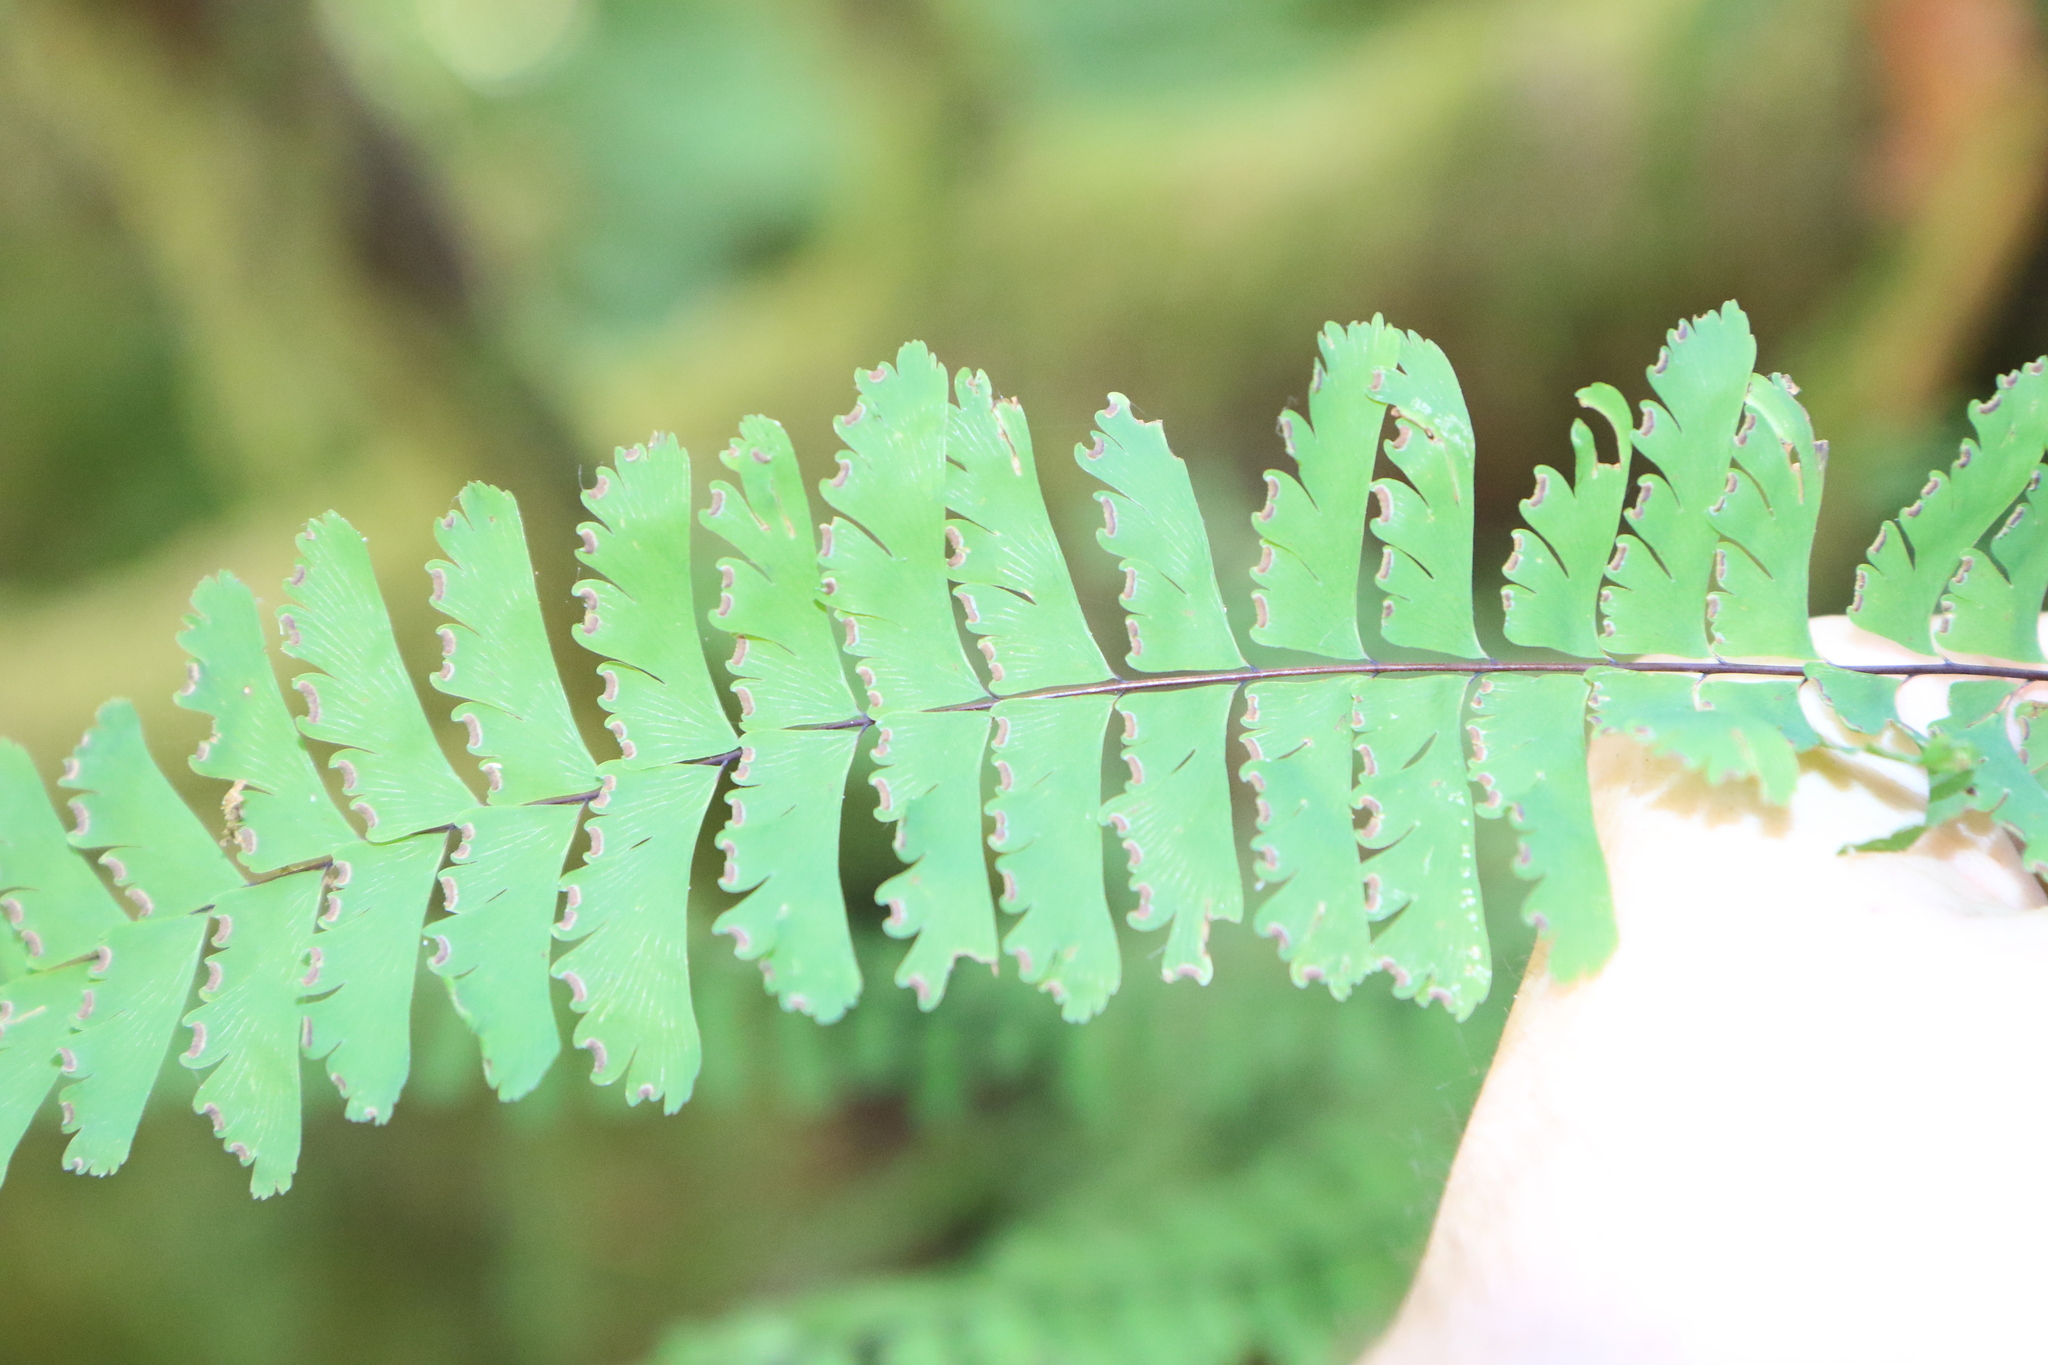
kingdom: Plantae
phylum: Tracheophyta
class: Polypodiopsida
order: Polypodiales
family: Pteridaceae
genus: Adiantum
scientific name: Adiantum aleuticum
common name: Aleutian maidenhair fern
